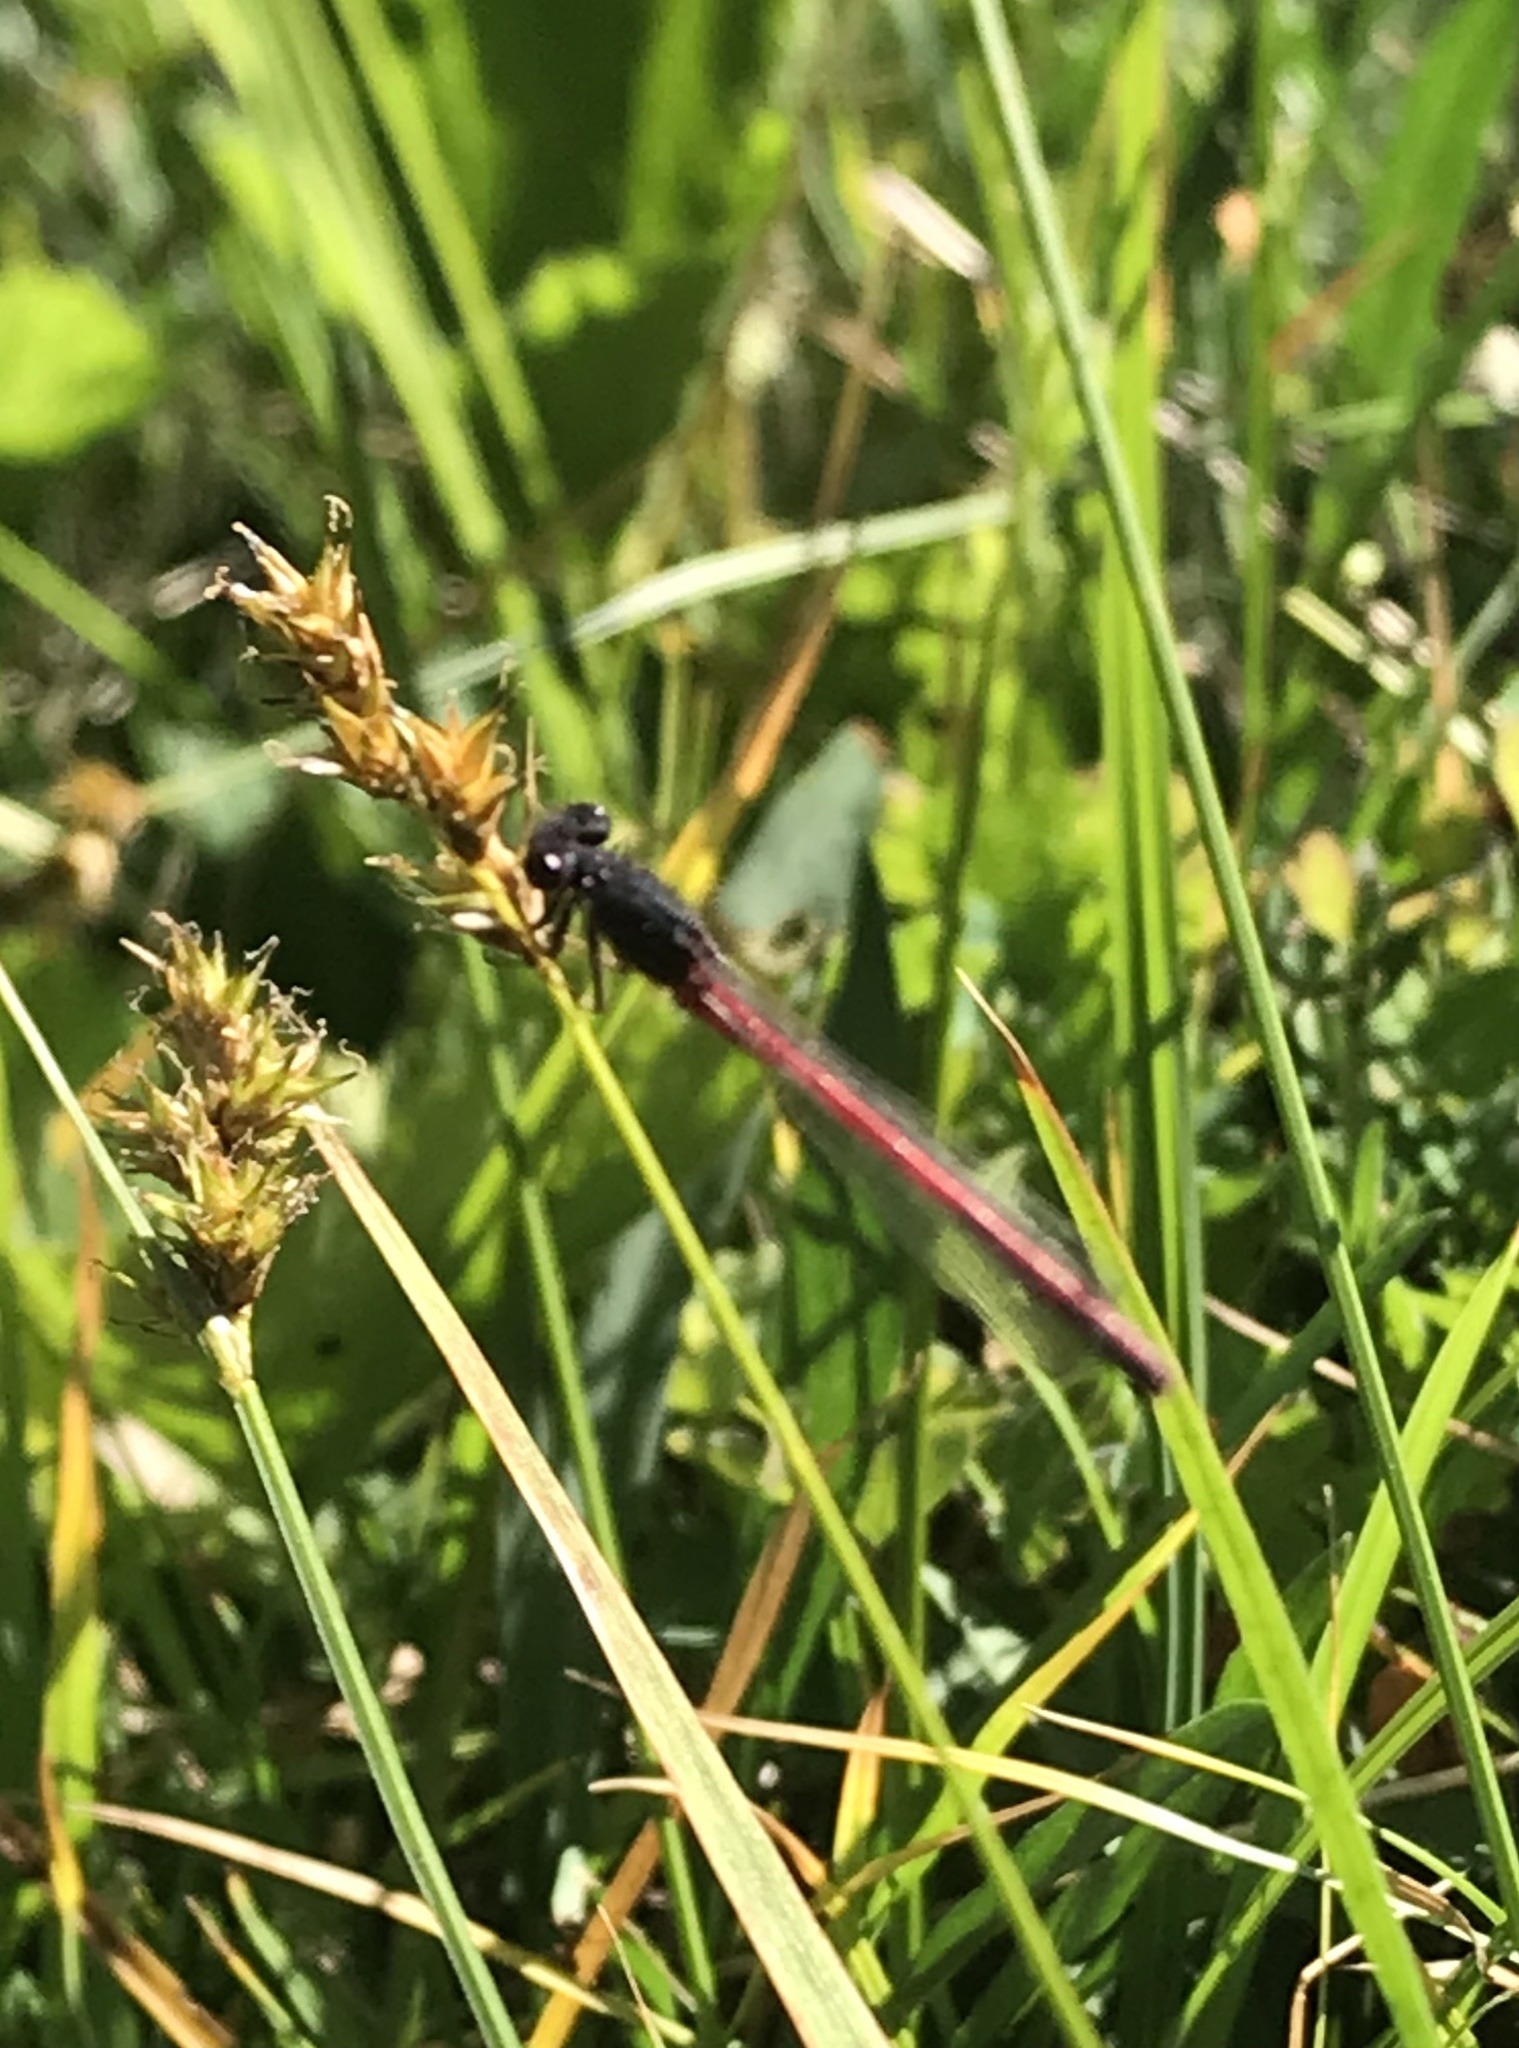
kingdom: Animalia
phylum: Arthropoda
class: Insecta
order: Odonata
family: Coenagrionidae
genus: Amphiagrion
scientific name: Amphiagrion abbreviatum
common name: Western red damsel
